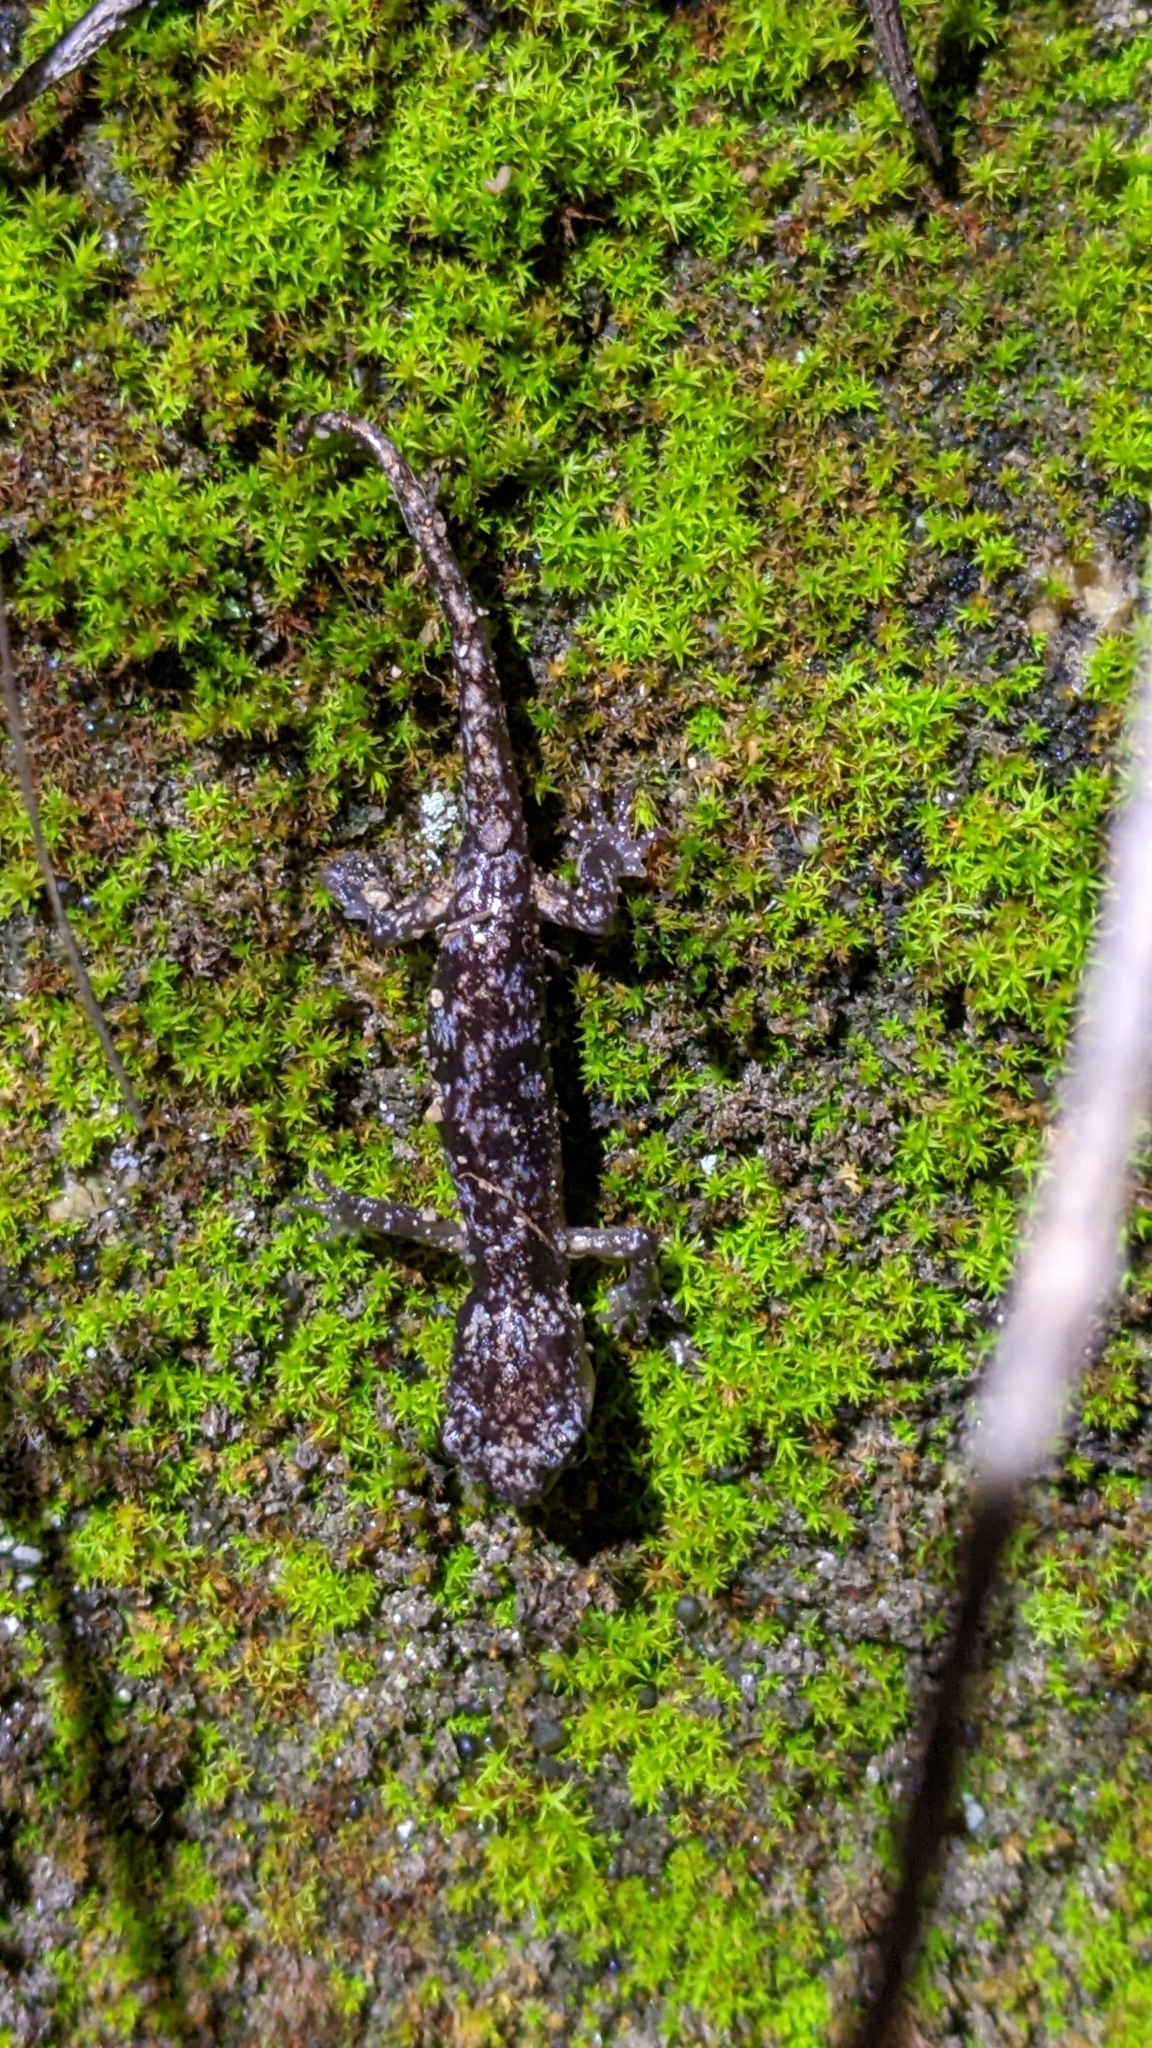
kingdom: Animalia
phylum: Chordata
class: Amphibia
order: Caudata
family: Plethodontidae
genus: Aneides
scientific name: Aneides lugubris
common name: Arboreal salamander
